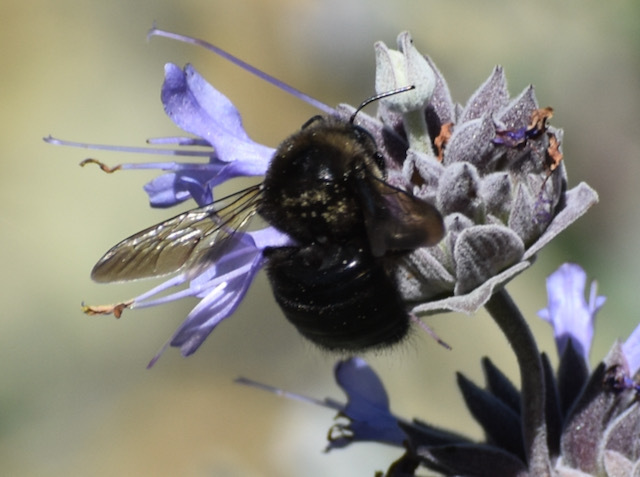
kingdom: Animalia
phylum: Arthropoda
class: Insecta
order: Hymenoptera
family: Apidae
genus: Xylocopa
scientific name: Xylocopa tabaniformis
